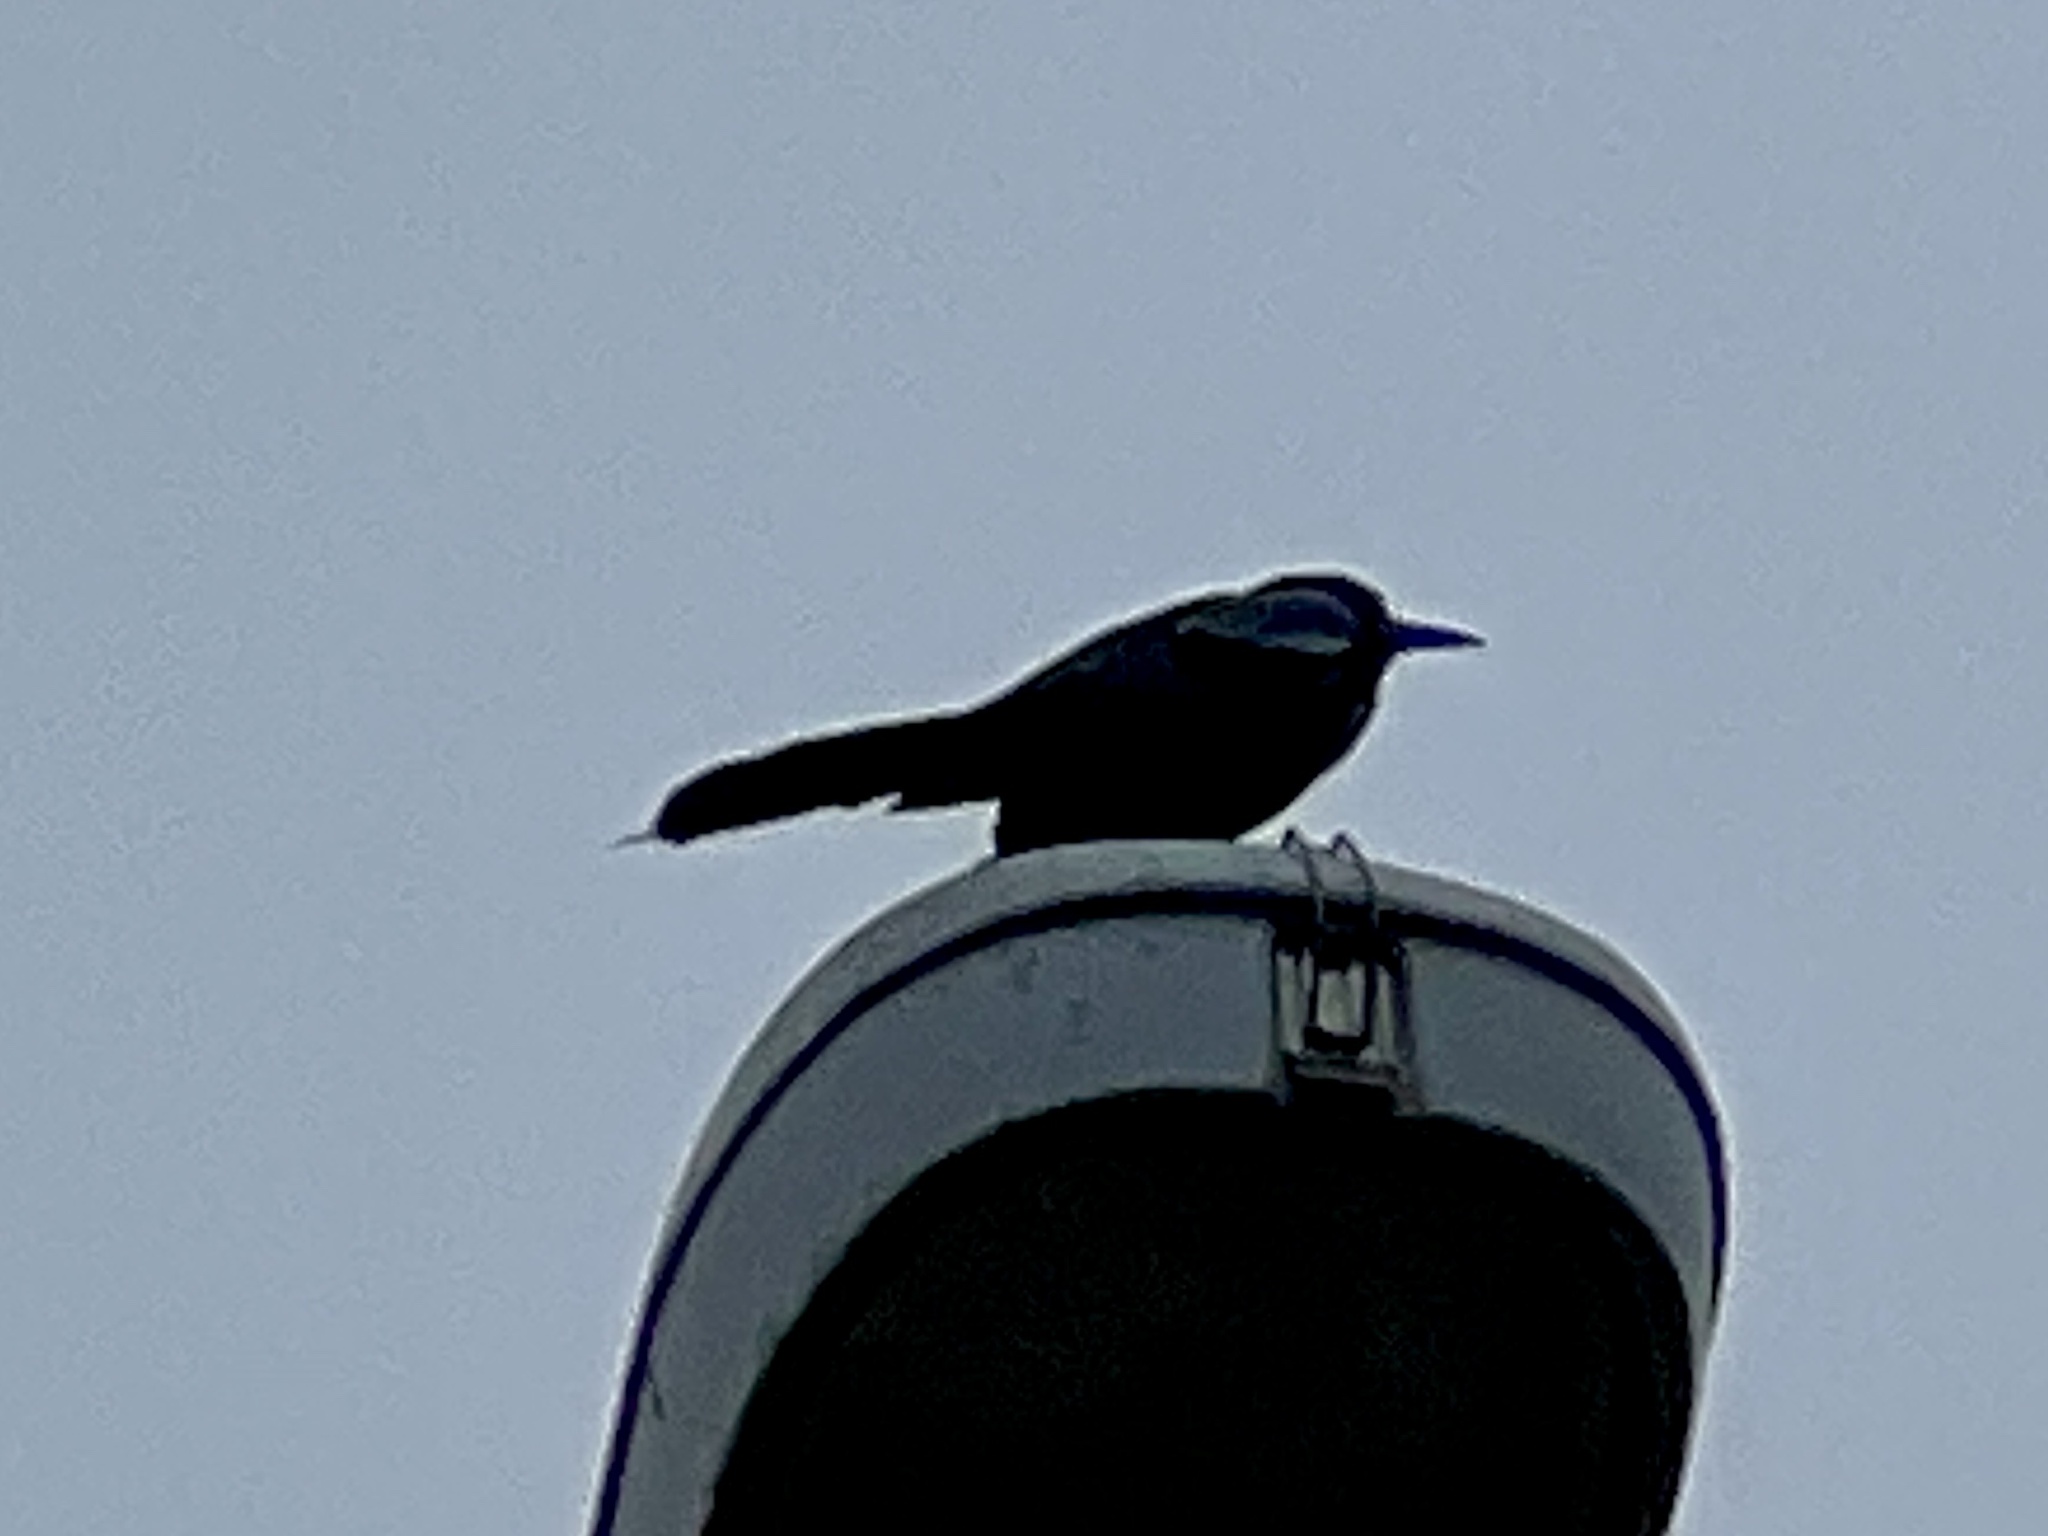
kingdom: Animalia
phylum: Chordata
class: Aves
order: Passeriformes
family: Icteridae
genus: Quiscalus
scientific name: Quiscalus mexicanus
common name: Great-tailed grackle
